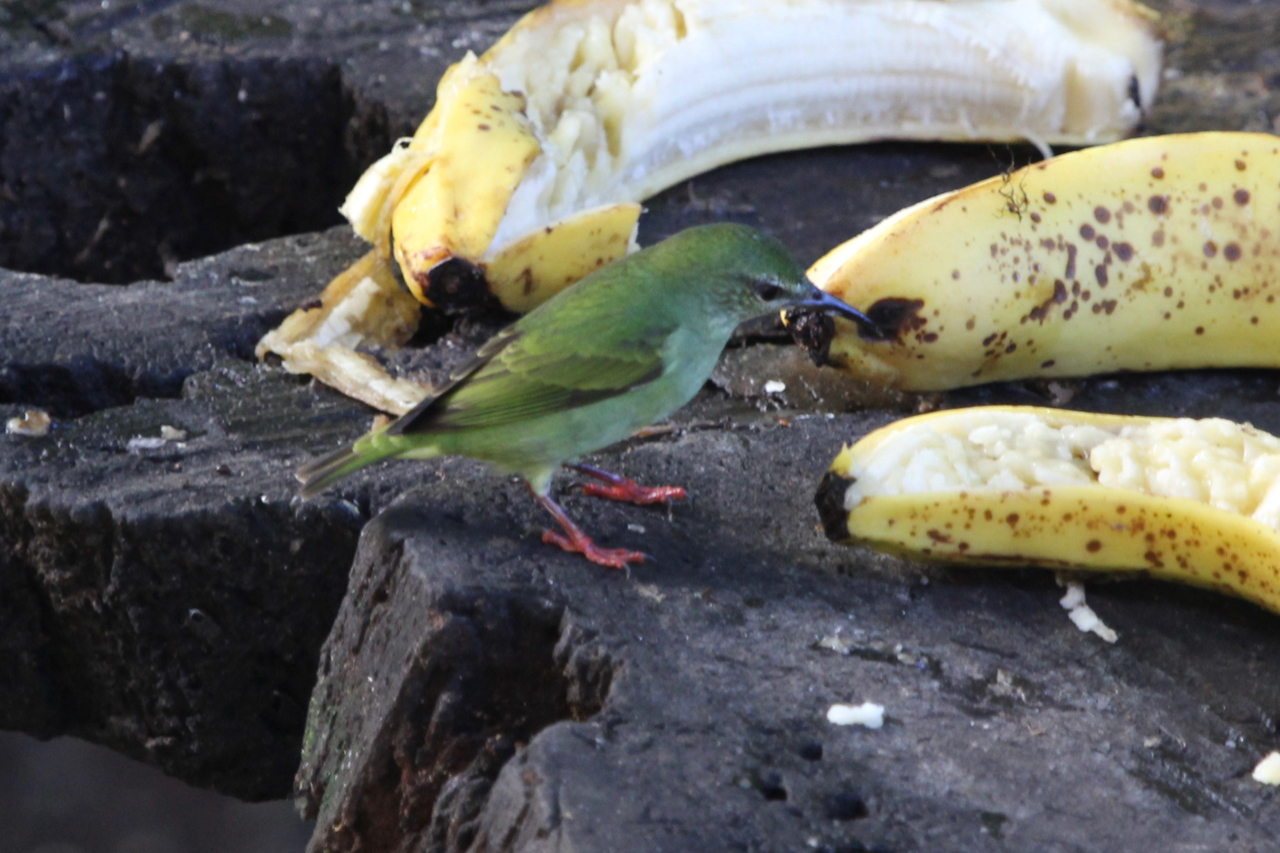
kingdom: Animalia
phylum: Chordata
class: Aves
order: Passeriformes
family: Thraupidae
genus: Cyanerpes
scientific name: Cyanerpes cyaneus
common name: Red-legged honeycreeper
